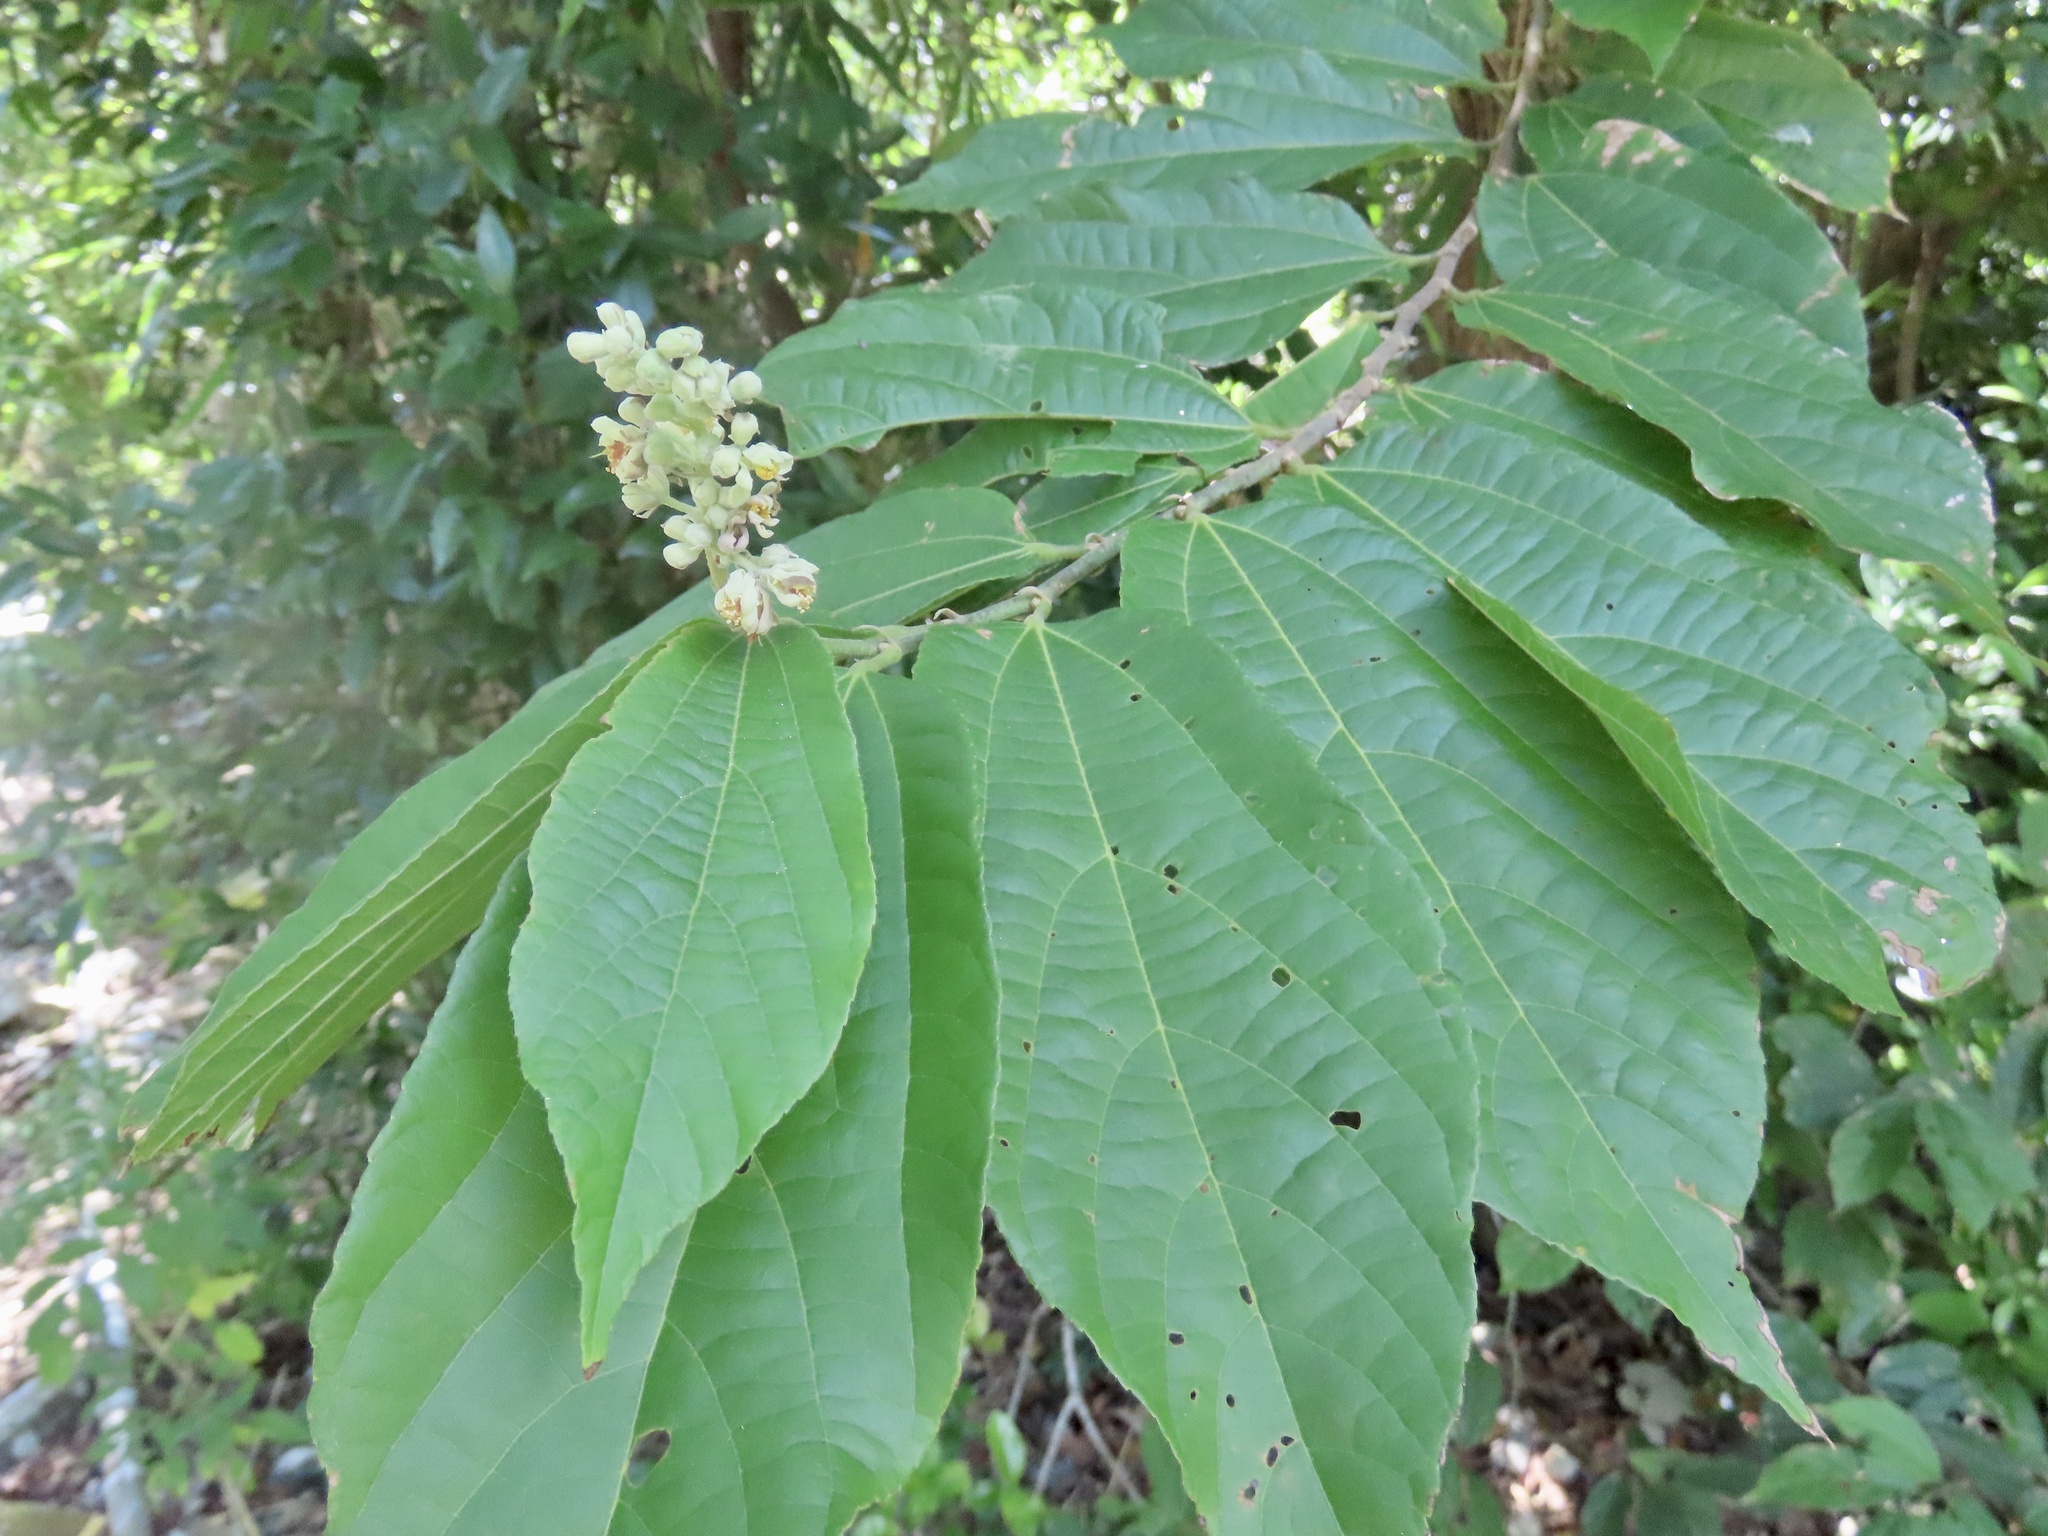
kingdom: Plantae
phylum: Tracheophyta
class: Magnoliopsida
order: Malvales
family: Malvaceae
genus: Microcos
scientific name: Microcos paniculata
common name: Microcos
